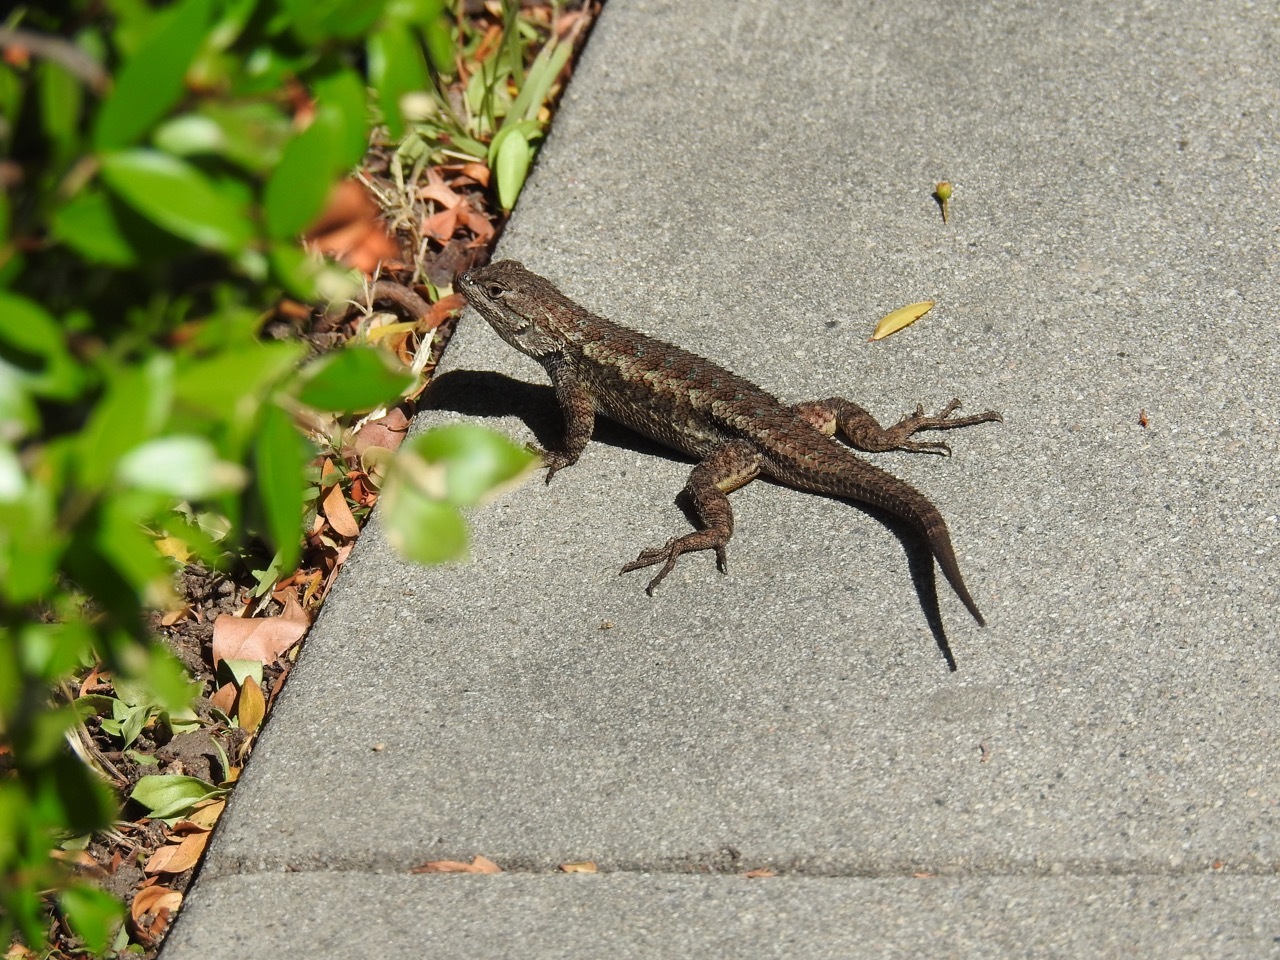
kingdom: Animalia
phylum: Chordata
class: Squamata
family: Phrynosomatidae
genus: Sceloporus
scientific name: Sceloporus occidentalis
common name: Western fence lizard
